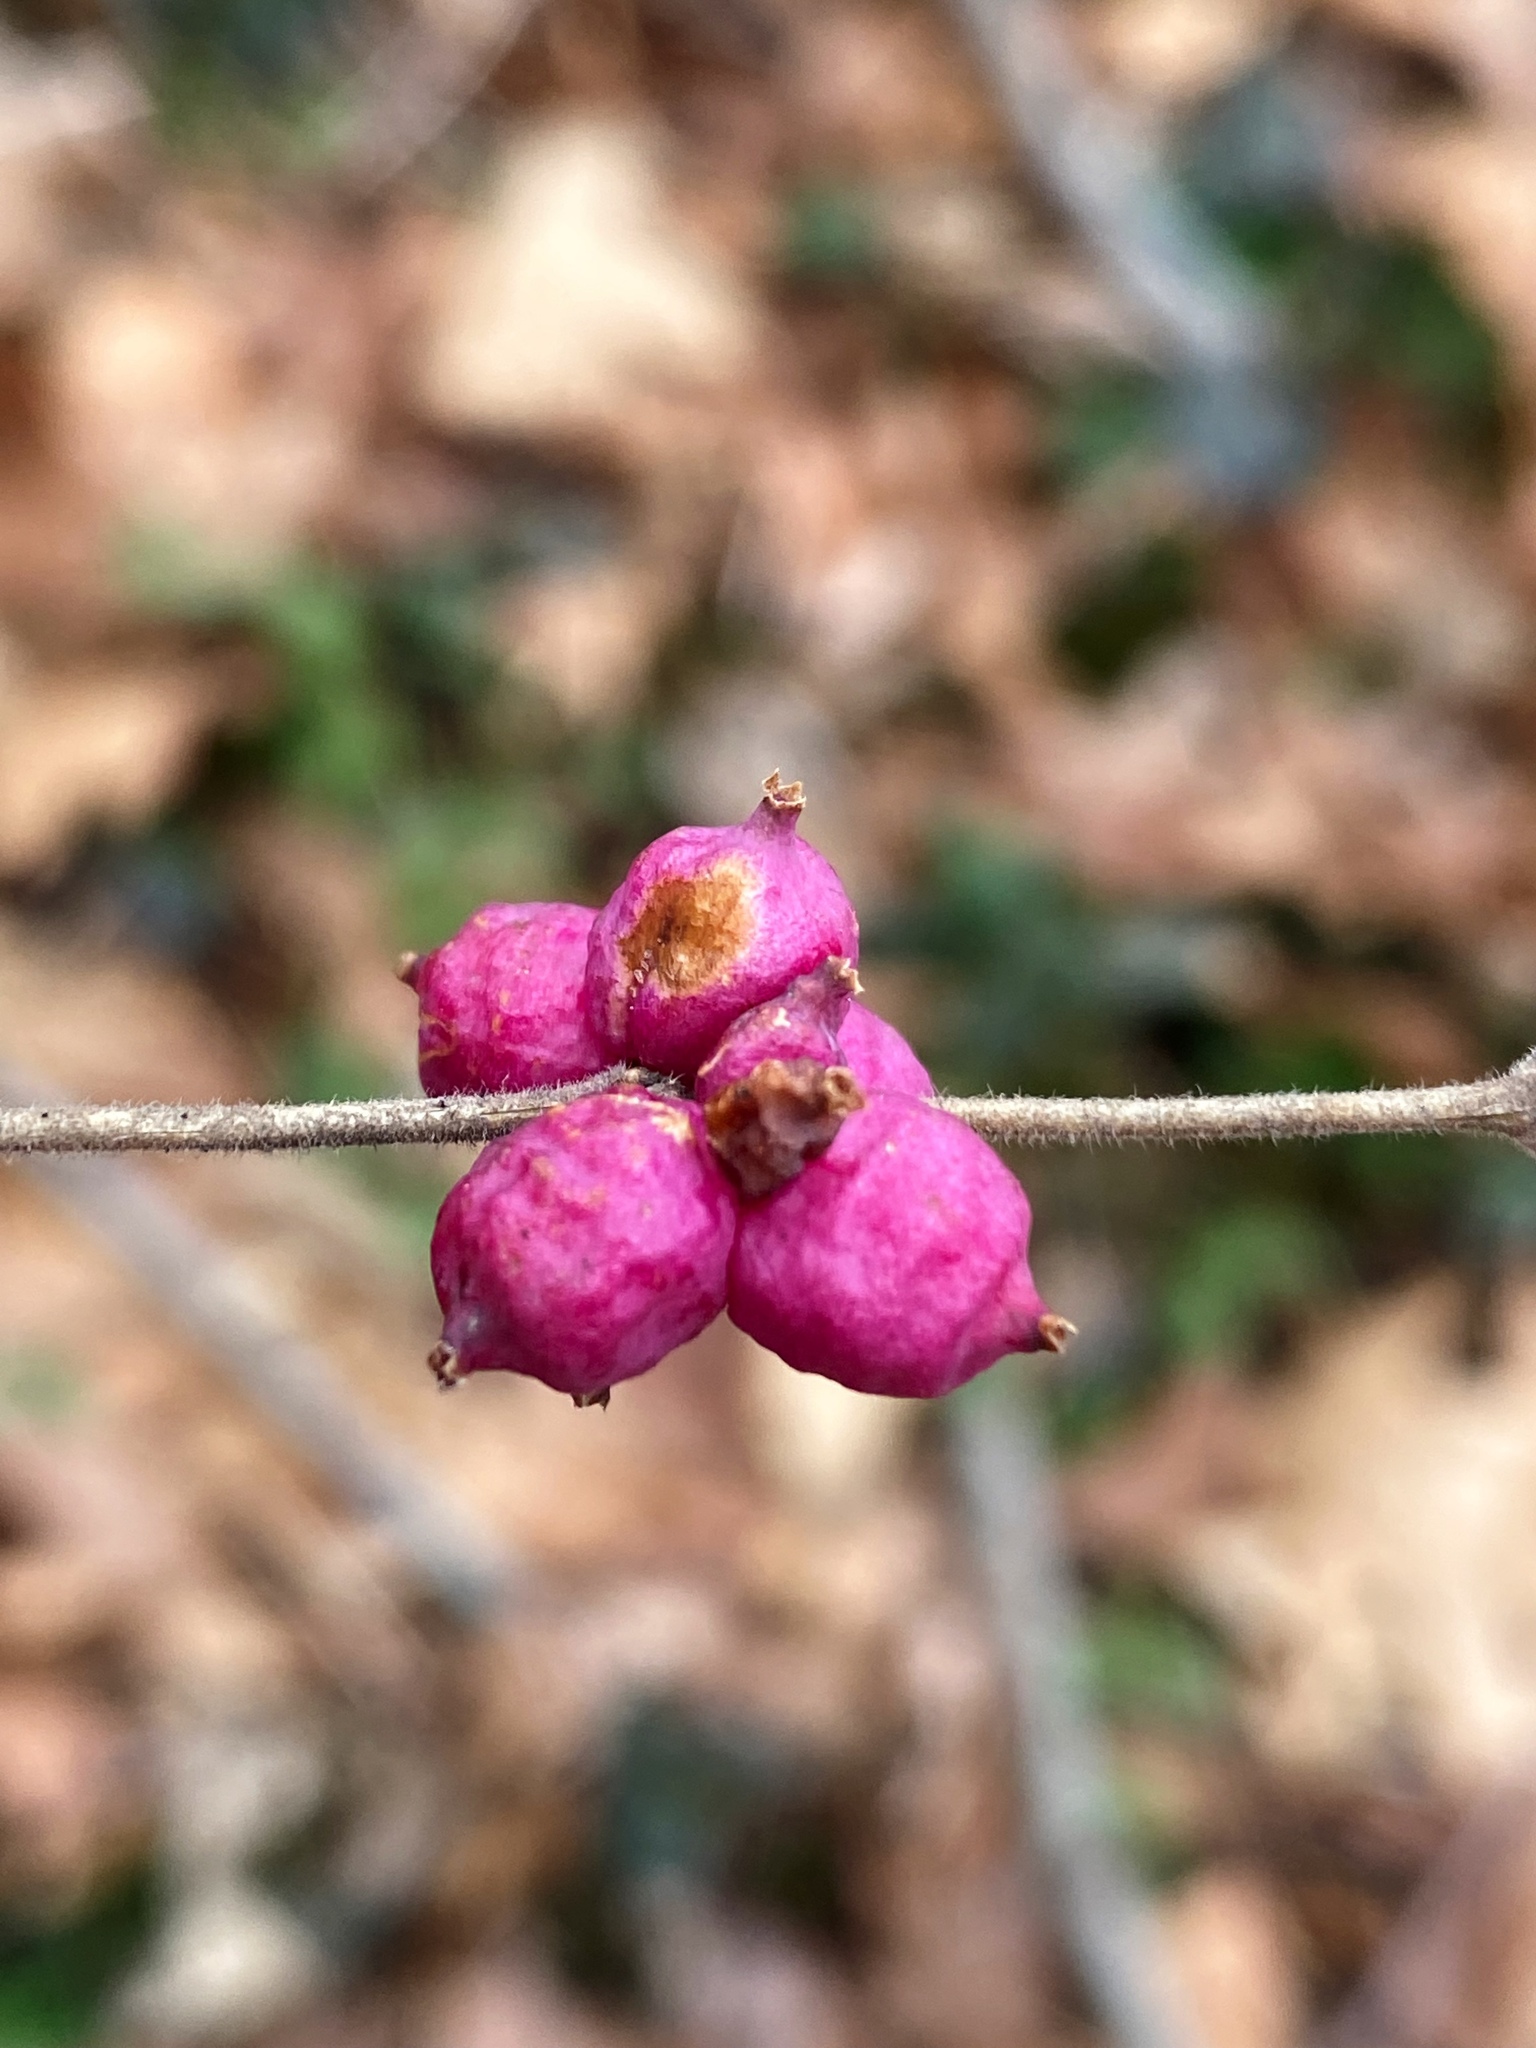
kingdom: Plantae
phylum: Tracheophyta
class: Magnoliopsida
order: Dipsacales
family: Caprifoliaceae
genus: Symphoricarpos
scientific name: Symphoricarpos orbiculatus
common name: Coralberry
